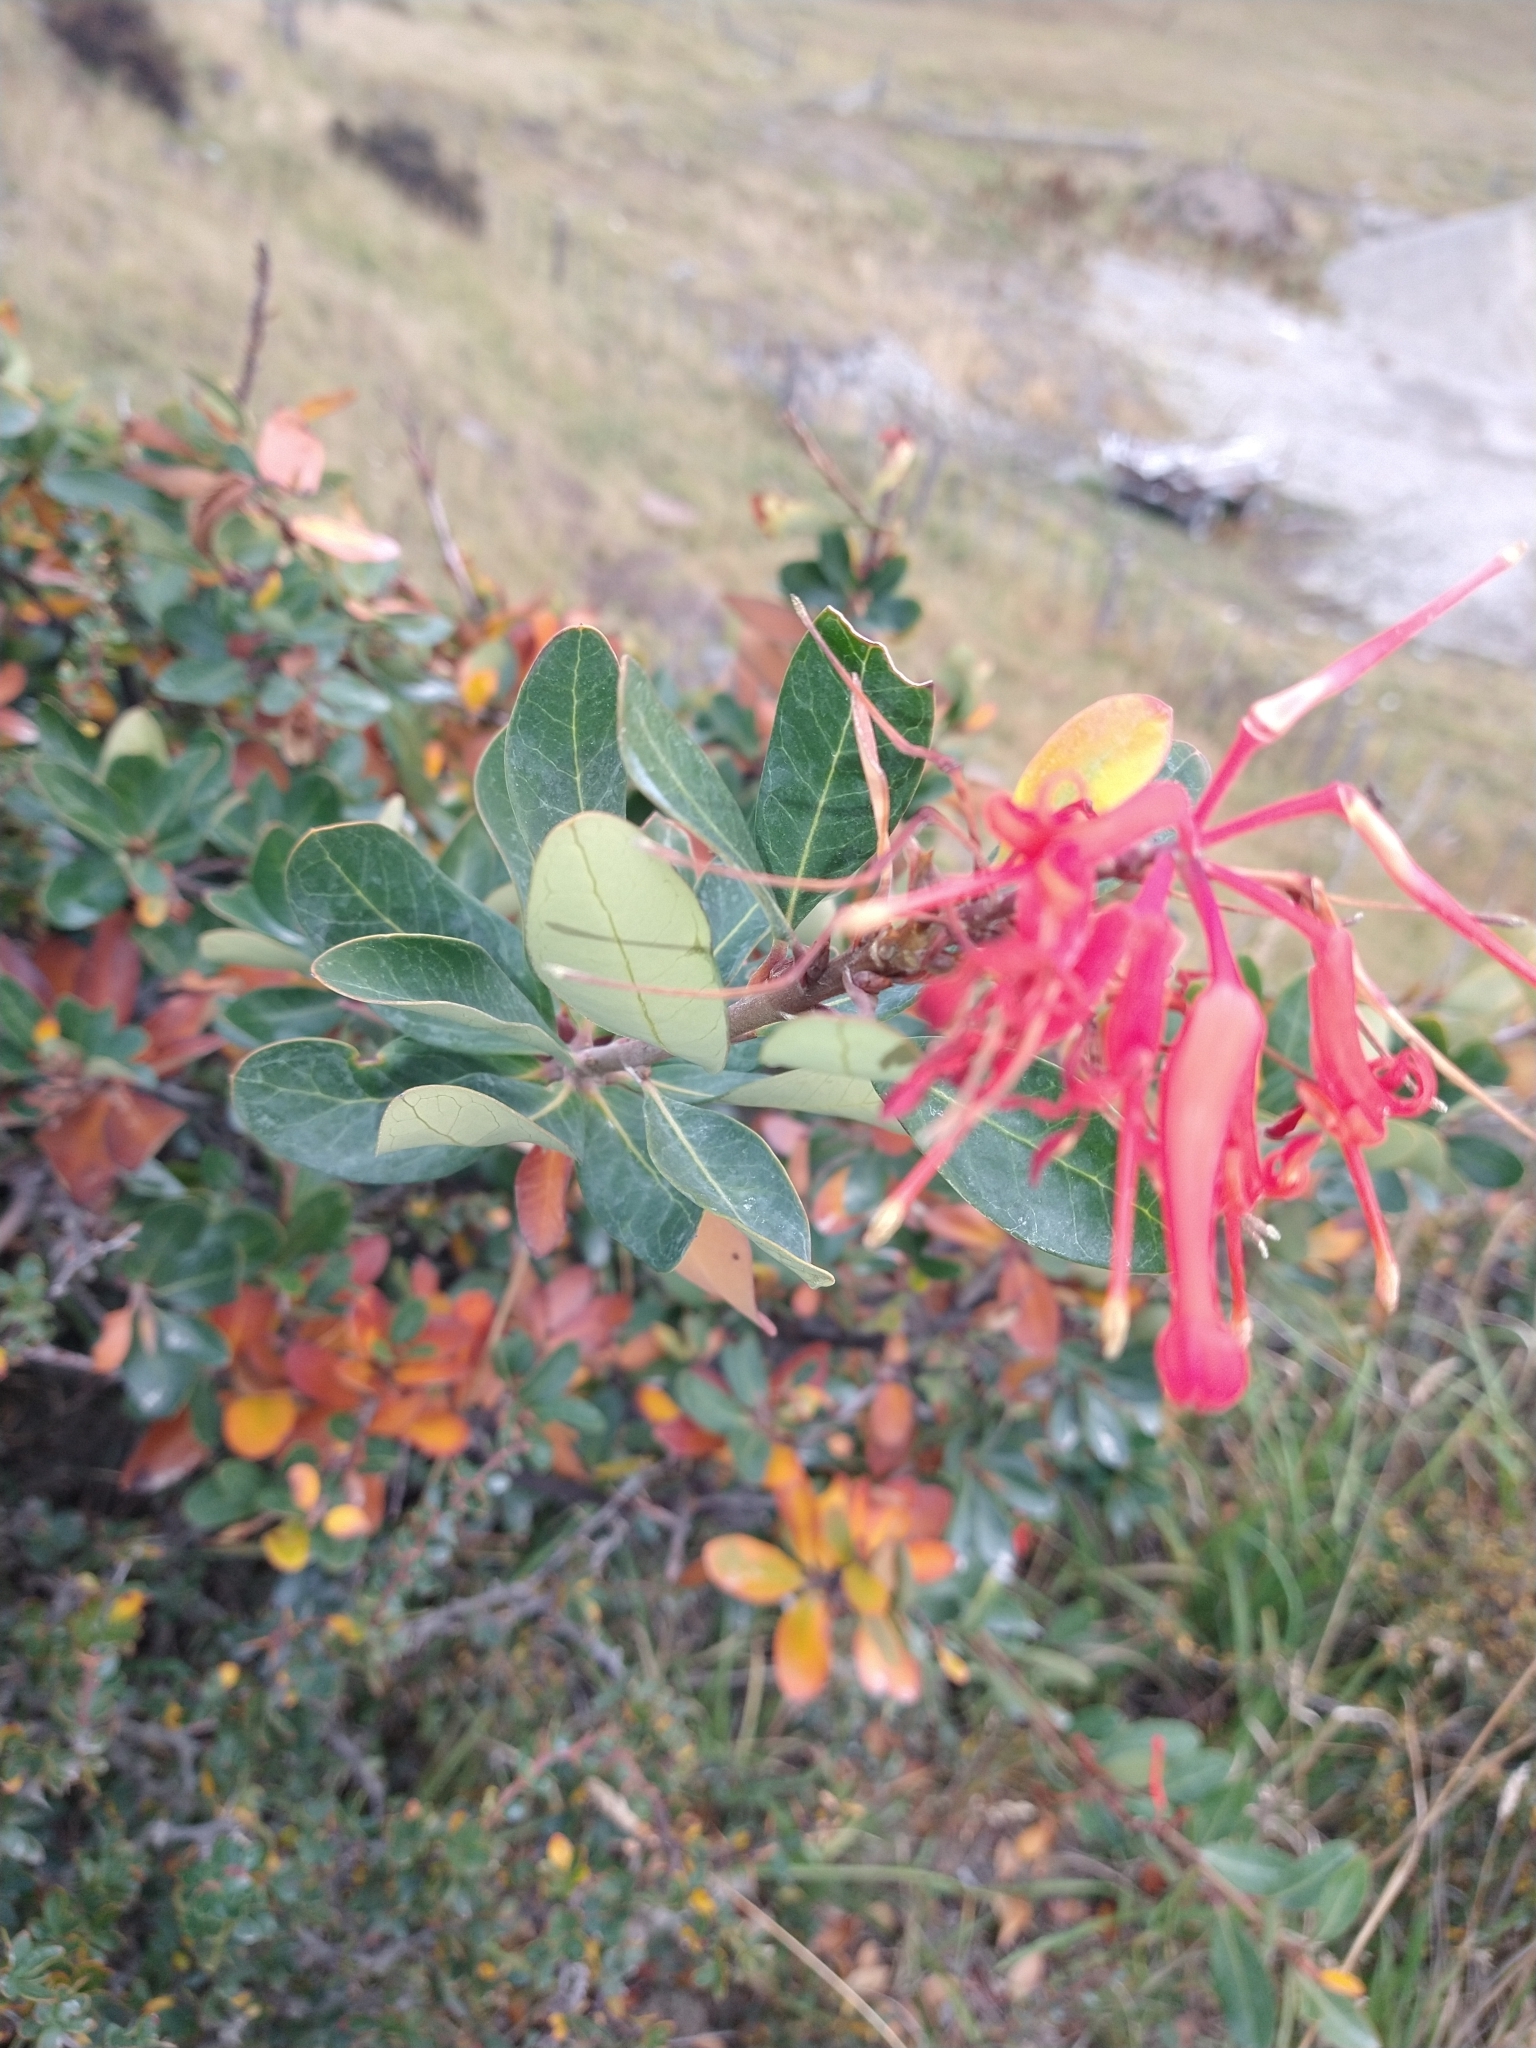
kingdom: Plantae
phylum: Tracheophyta
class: Magnoliopsida
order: Proteales
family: Proteaceae
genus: Embothrium
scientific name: Embothrium coccineum
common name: Chilean firebush
